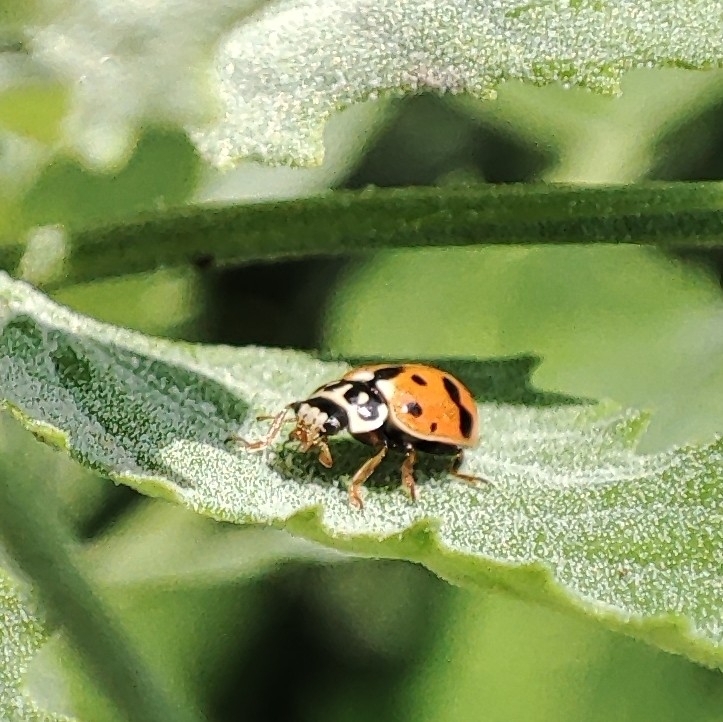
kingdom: Animalia
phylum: Arthropoda
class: Insecta
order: Coleoptera
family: Coccinellidae
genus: Hippodamia
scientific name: Hippodamia variegata
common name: Ladybird beetle
